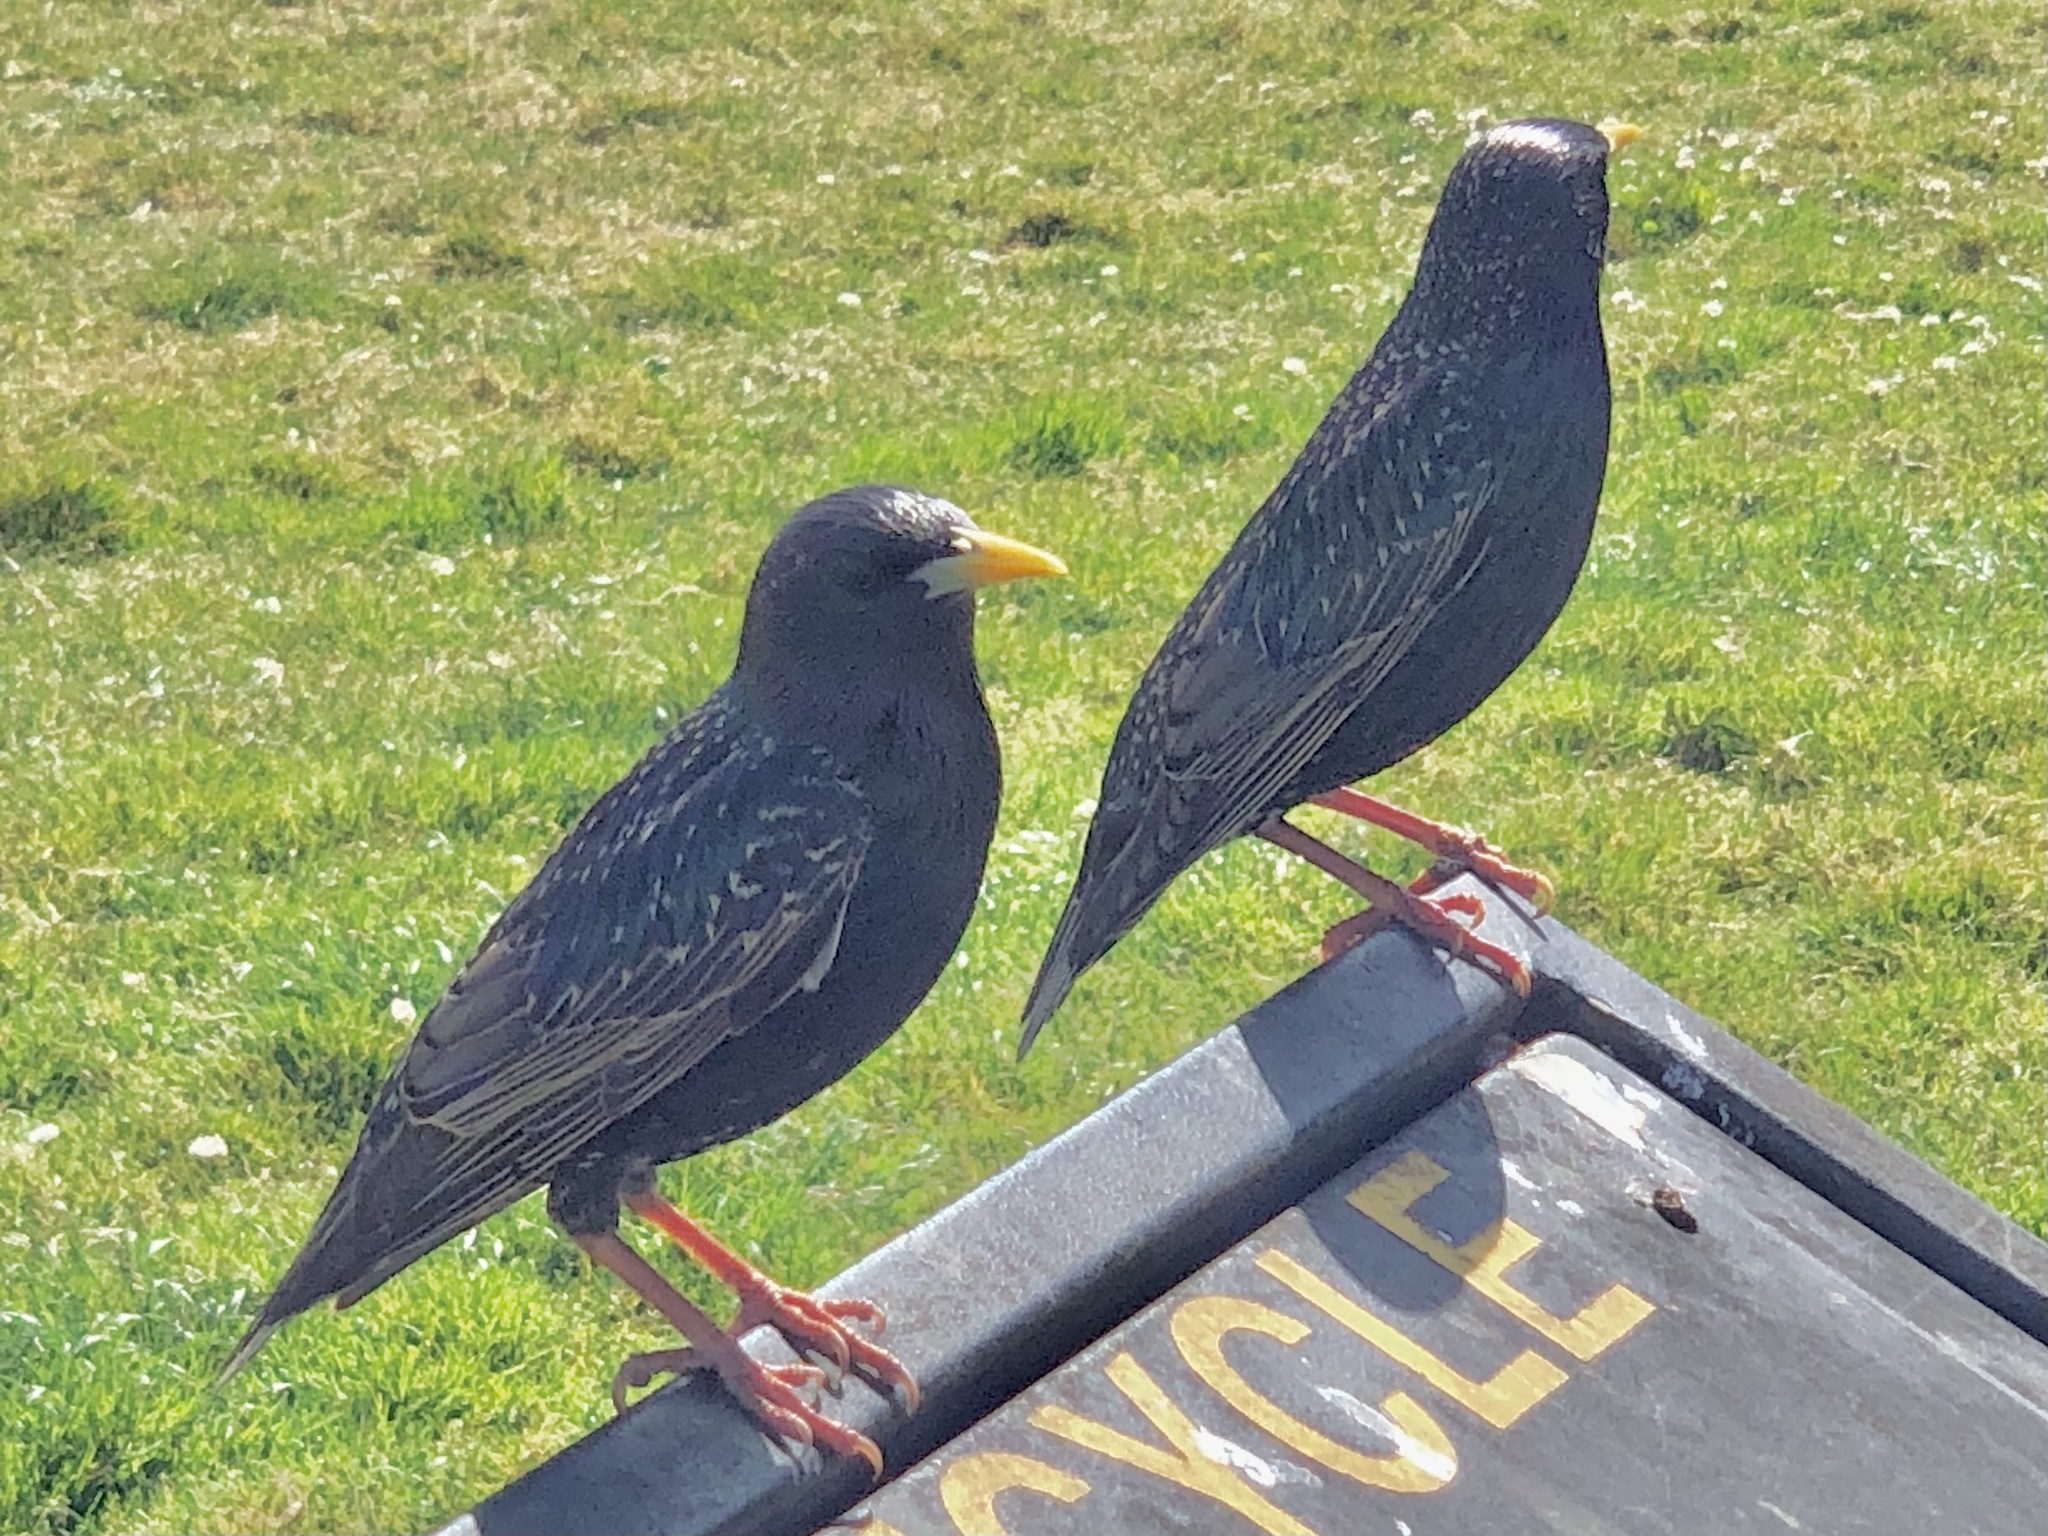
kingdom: Animalia
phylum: Chordata
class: Aves
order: Passeriformes
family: Sturnidae
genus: Sturnus
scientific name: Sturnus vulgaris
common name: Common starling
